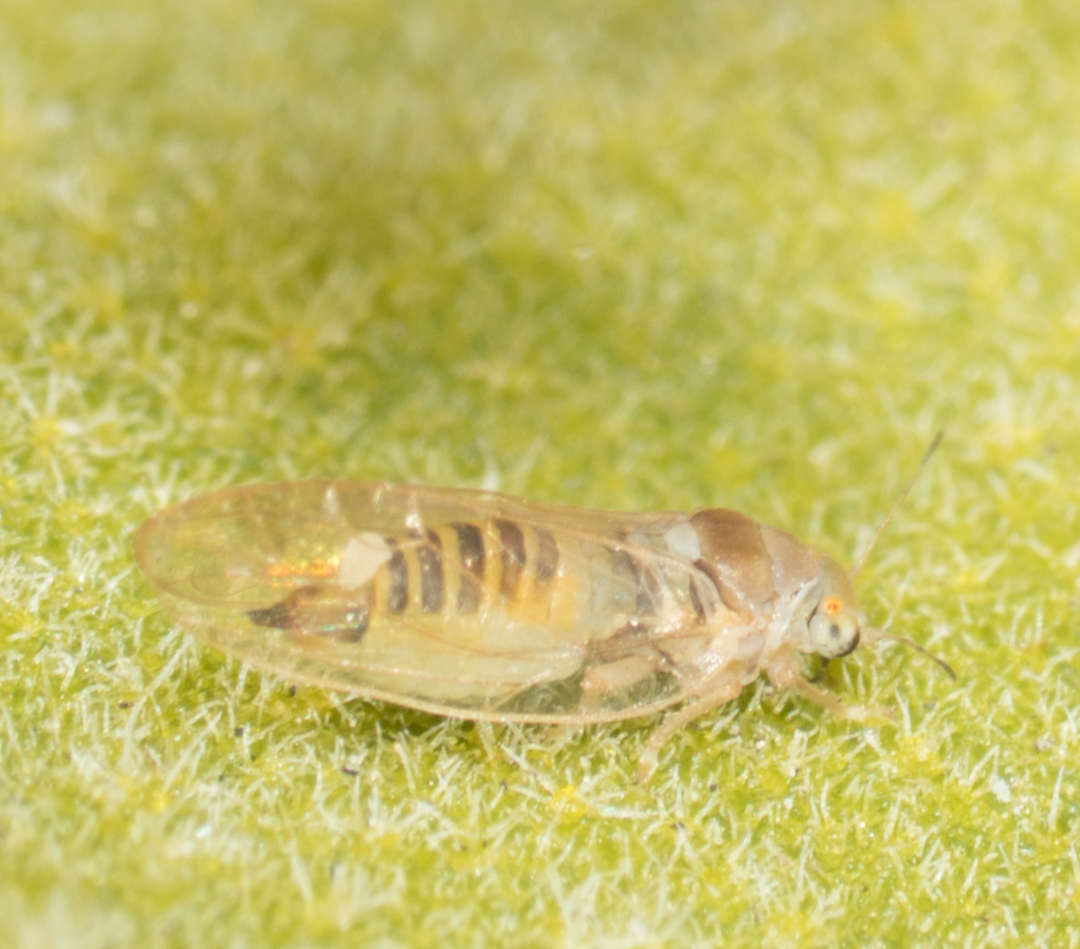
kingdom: Animalia
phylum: Arthropoda
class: Insecta
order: Hemiptera
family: Triozidae
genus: Trioza
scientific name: Trioza phorodendrae
